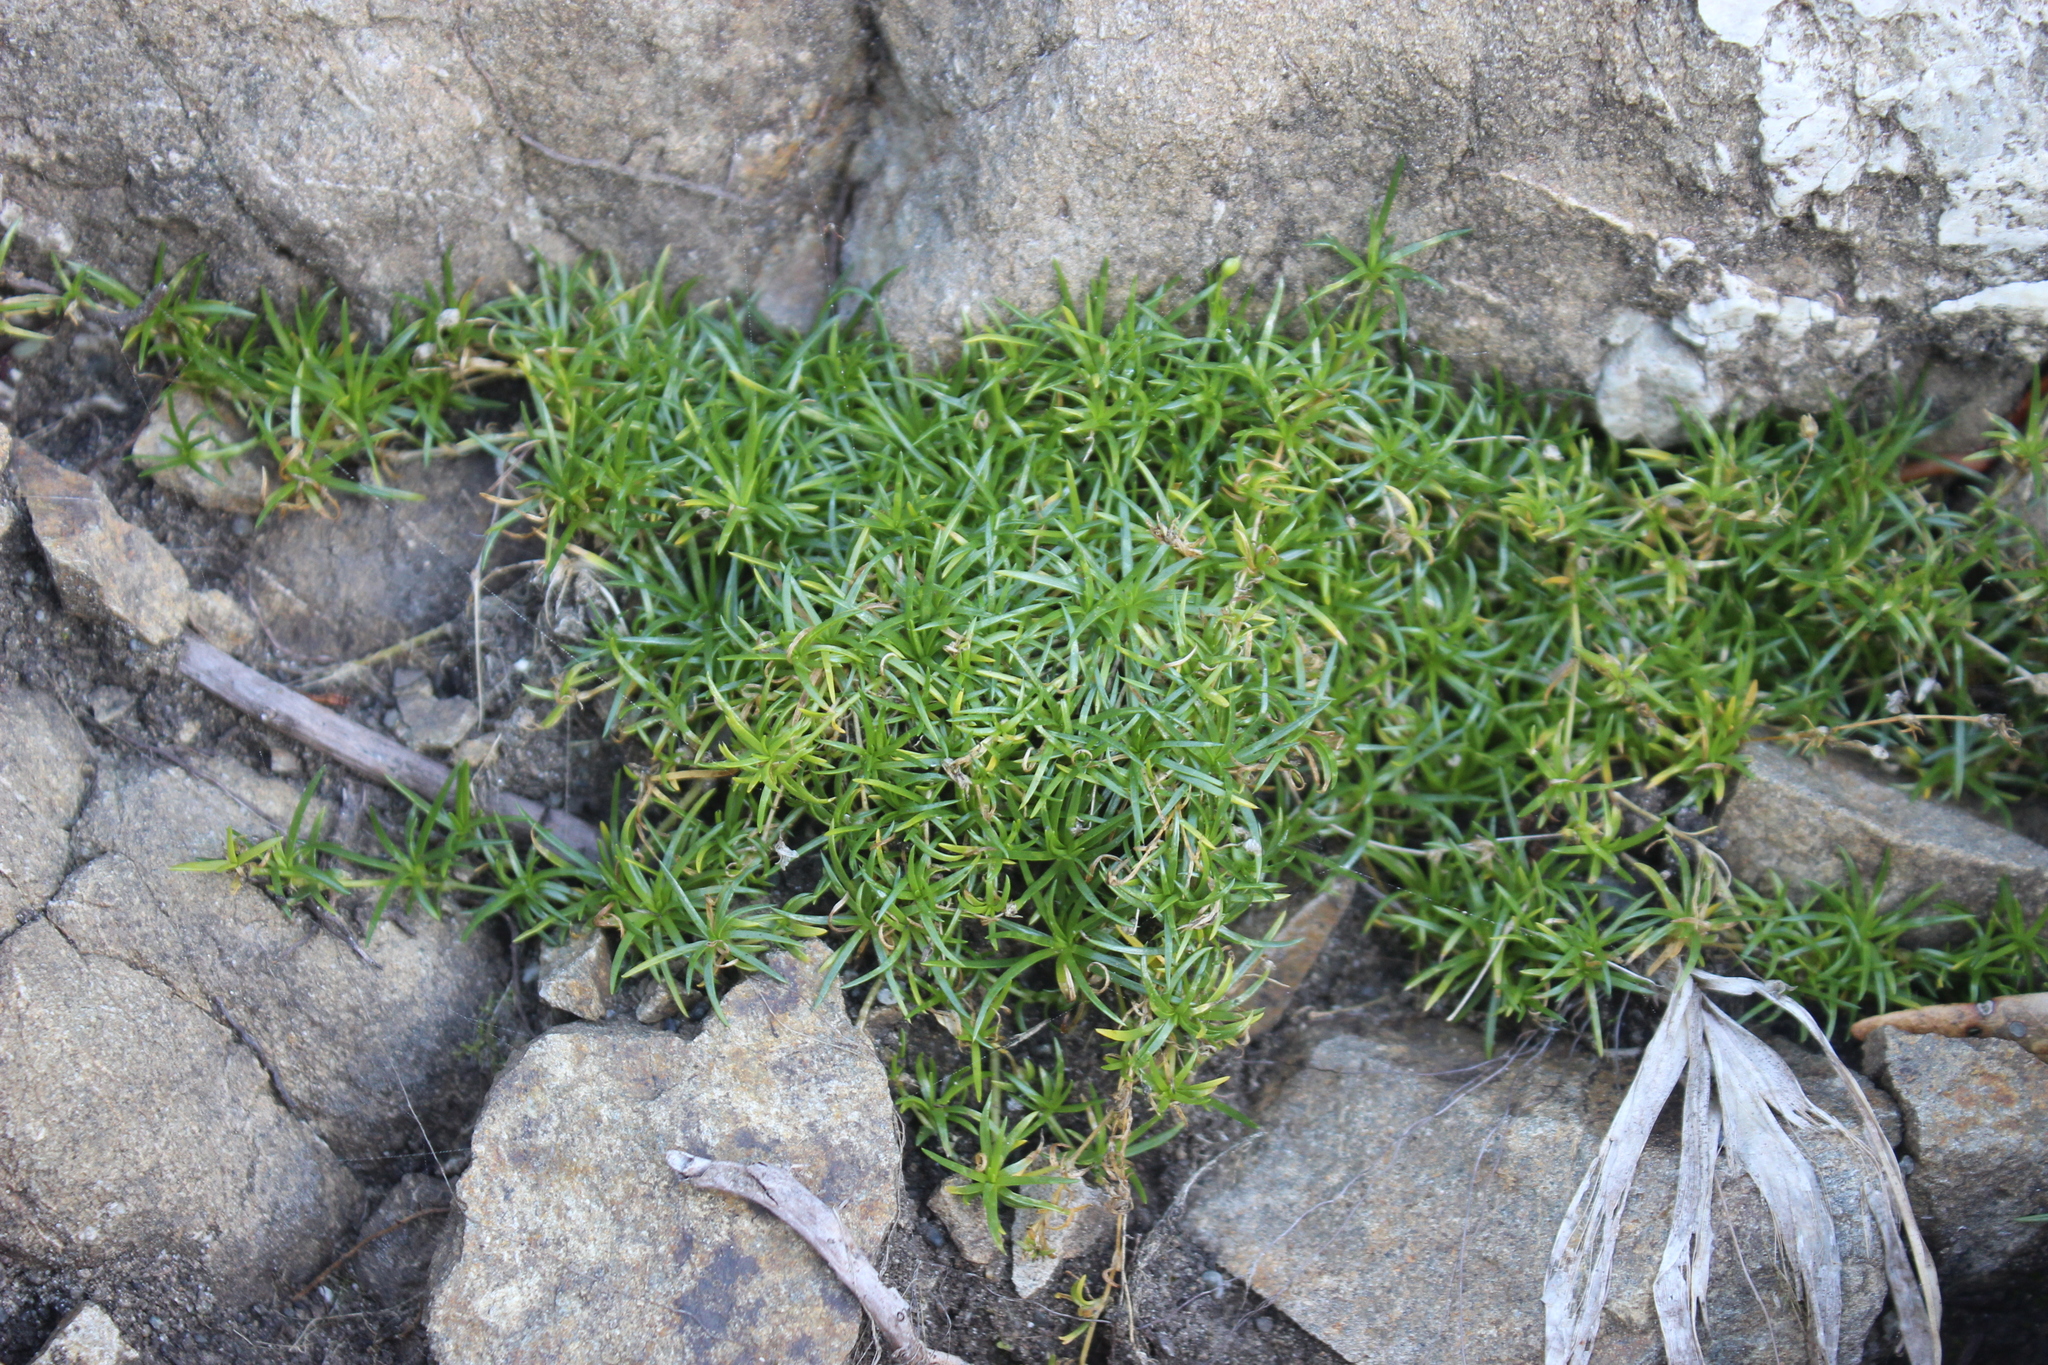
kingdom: Plantae
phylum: Tracheophyta
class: Magnoliopsida
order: Caryophyllales
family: Caryophyllaceae
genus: Sagina
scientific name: Sagina procumbens
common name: Procumbent pearlwort
